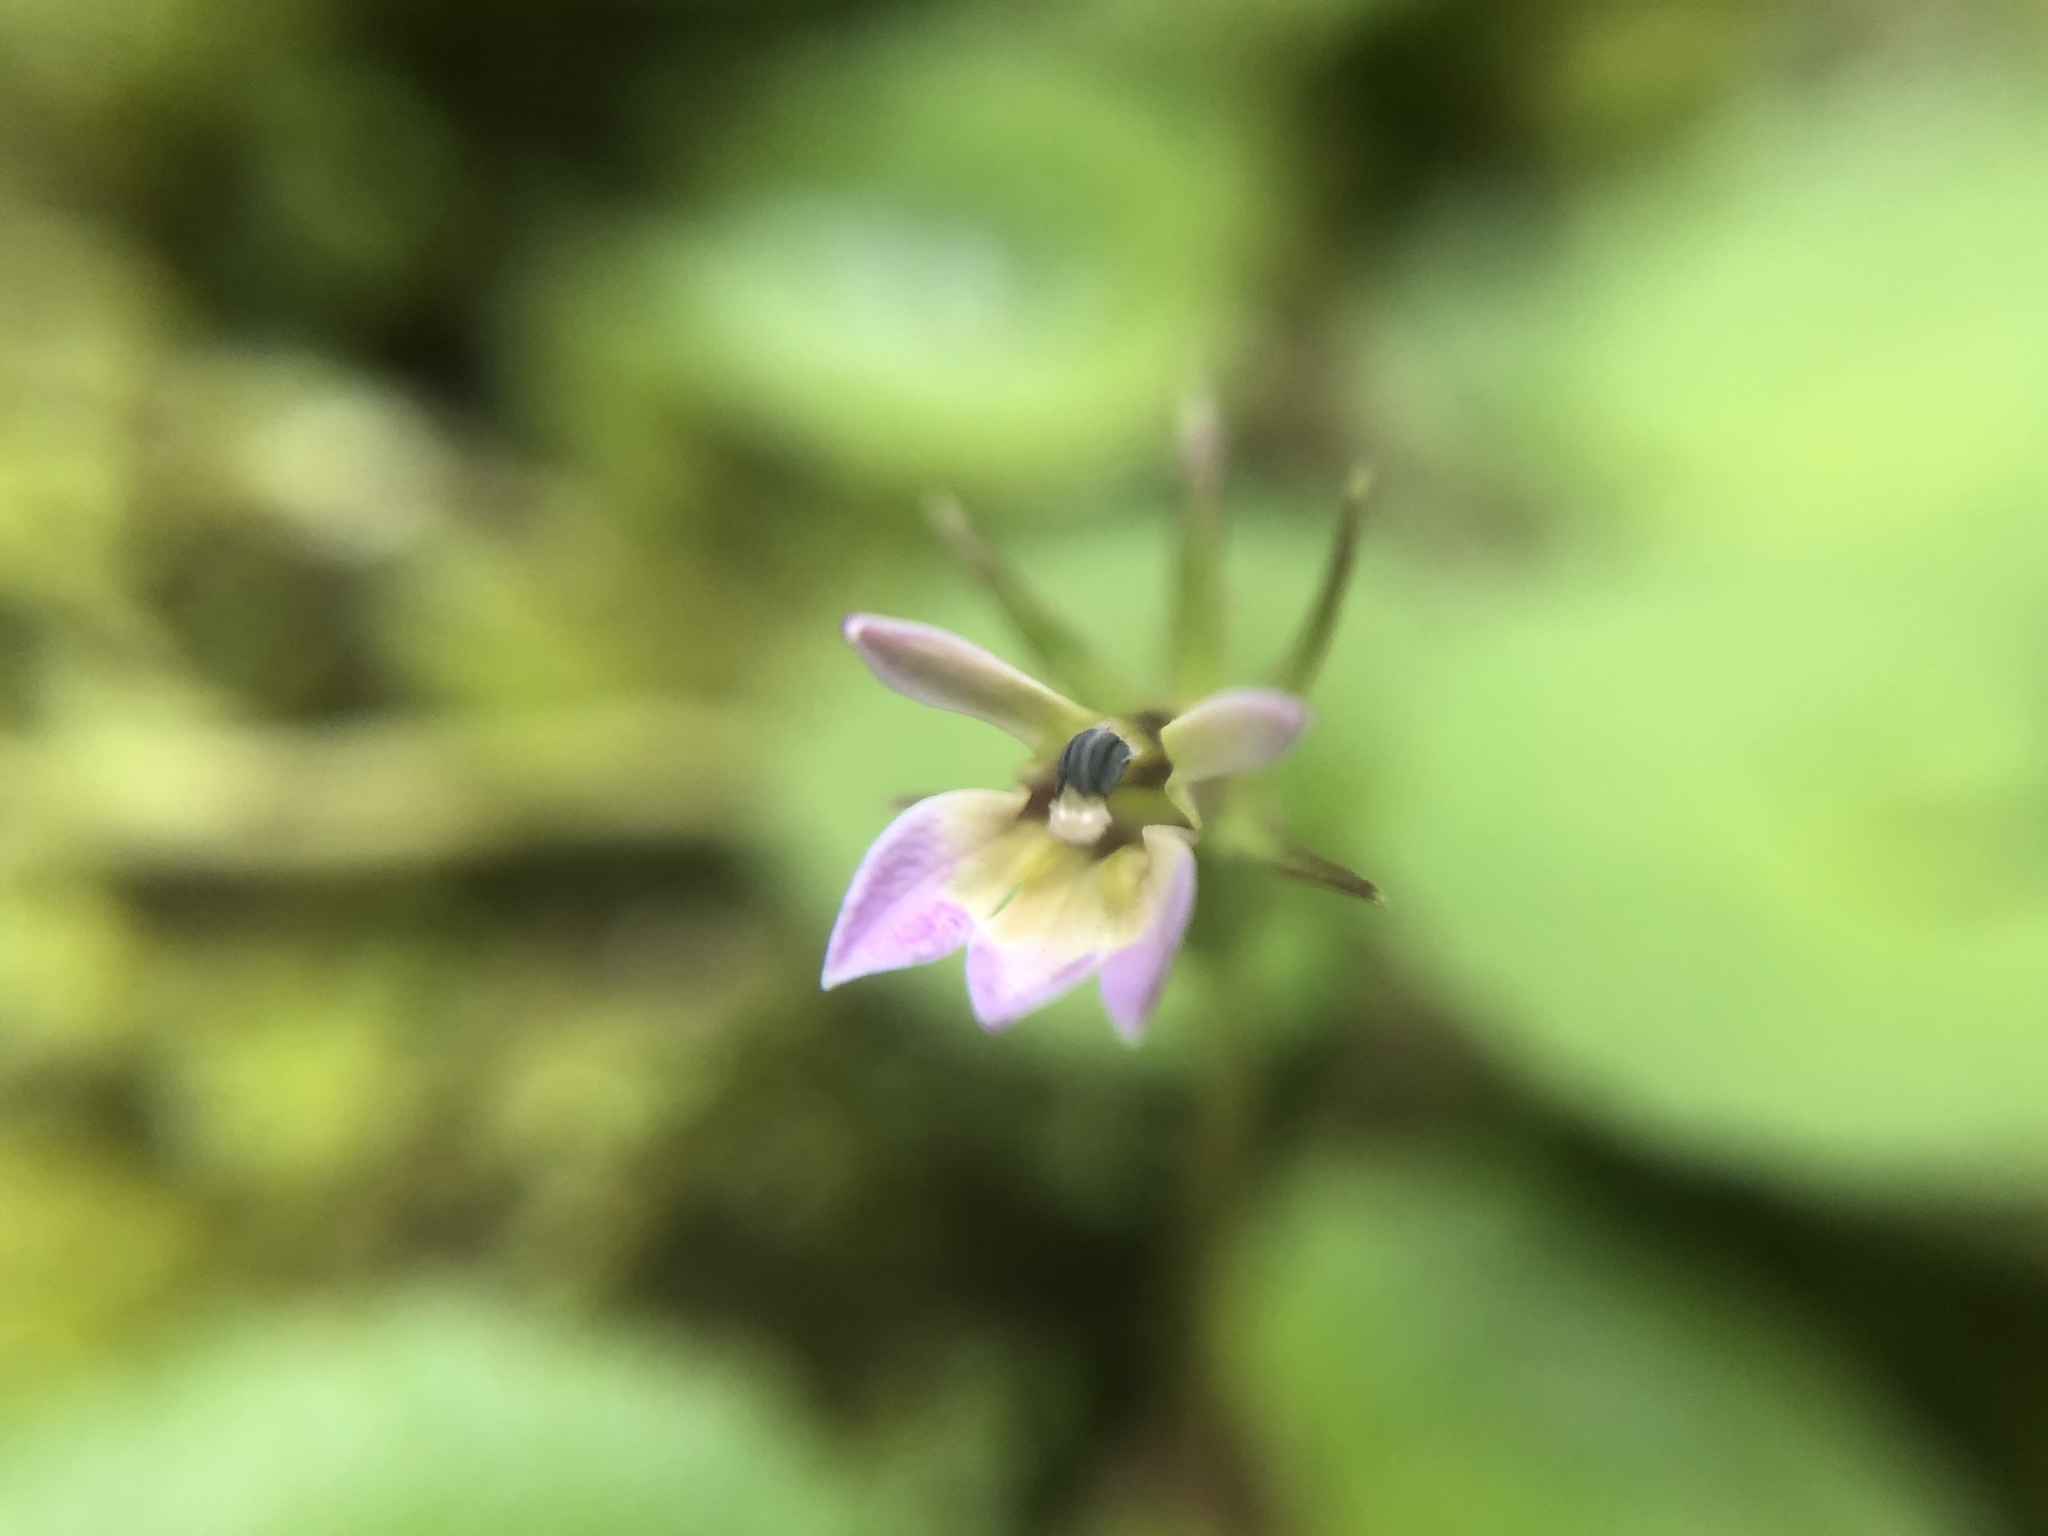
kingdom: Plantae
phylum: Tracheophyta
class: Magnoliopsida
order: Asterales
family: Campanulaceae
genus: Lobelia
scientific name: Lobelia nummularia
